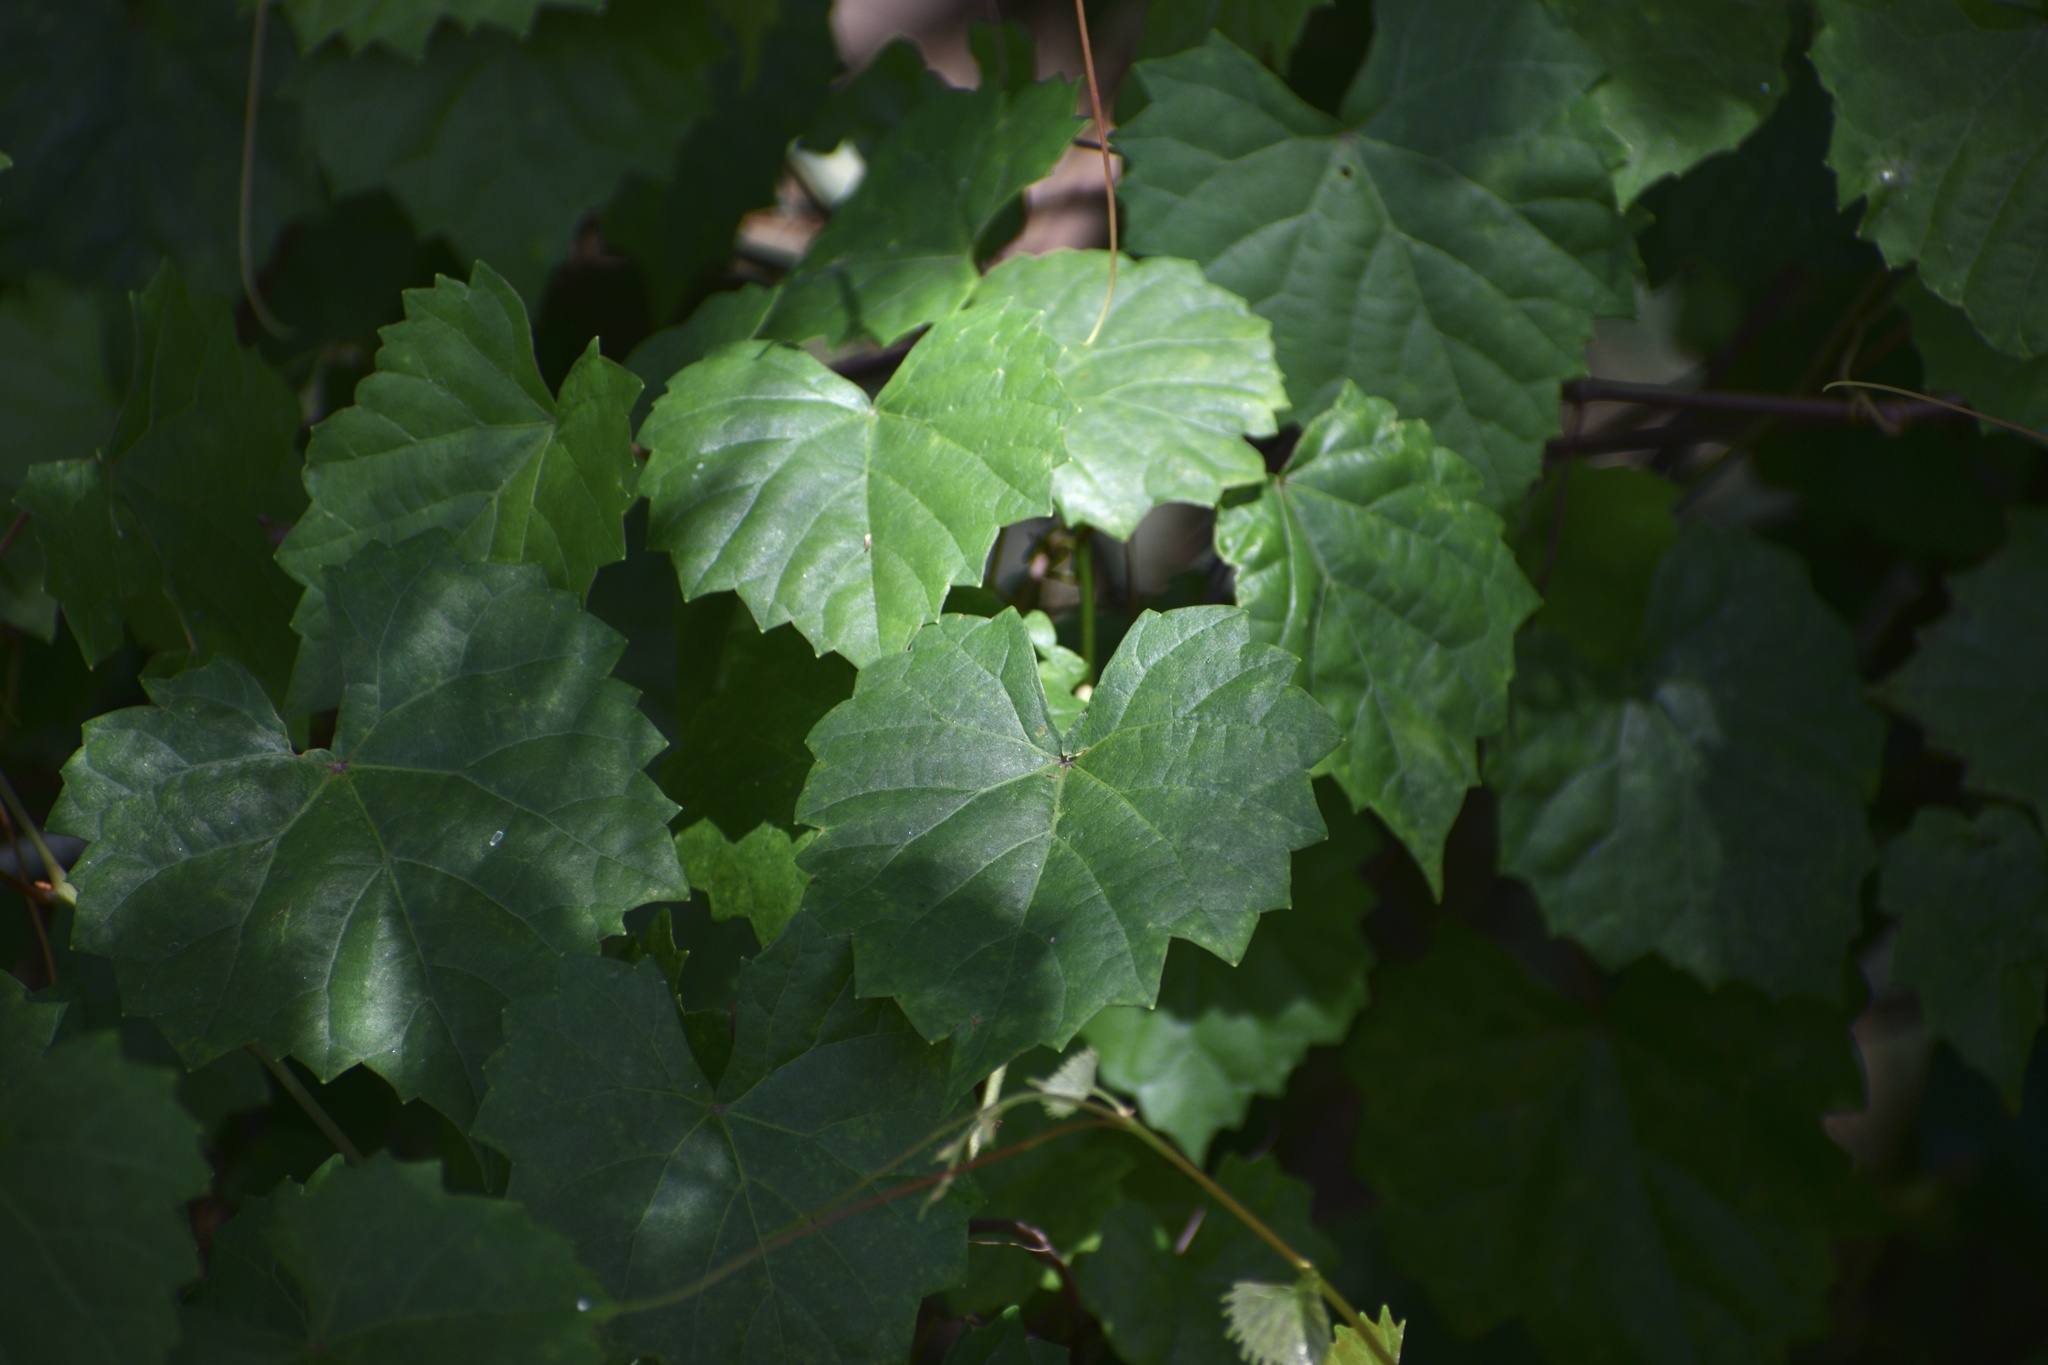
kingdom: Plantae
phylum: Tracheophyta
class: Magnoliopsida
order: Vitales
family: Vitaceae
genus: Vitis
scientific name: Vitis rotundifolia
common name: Muscadine grape
